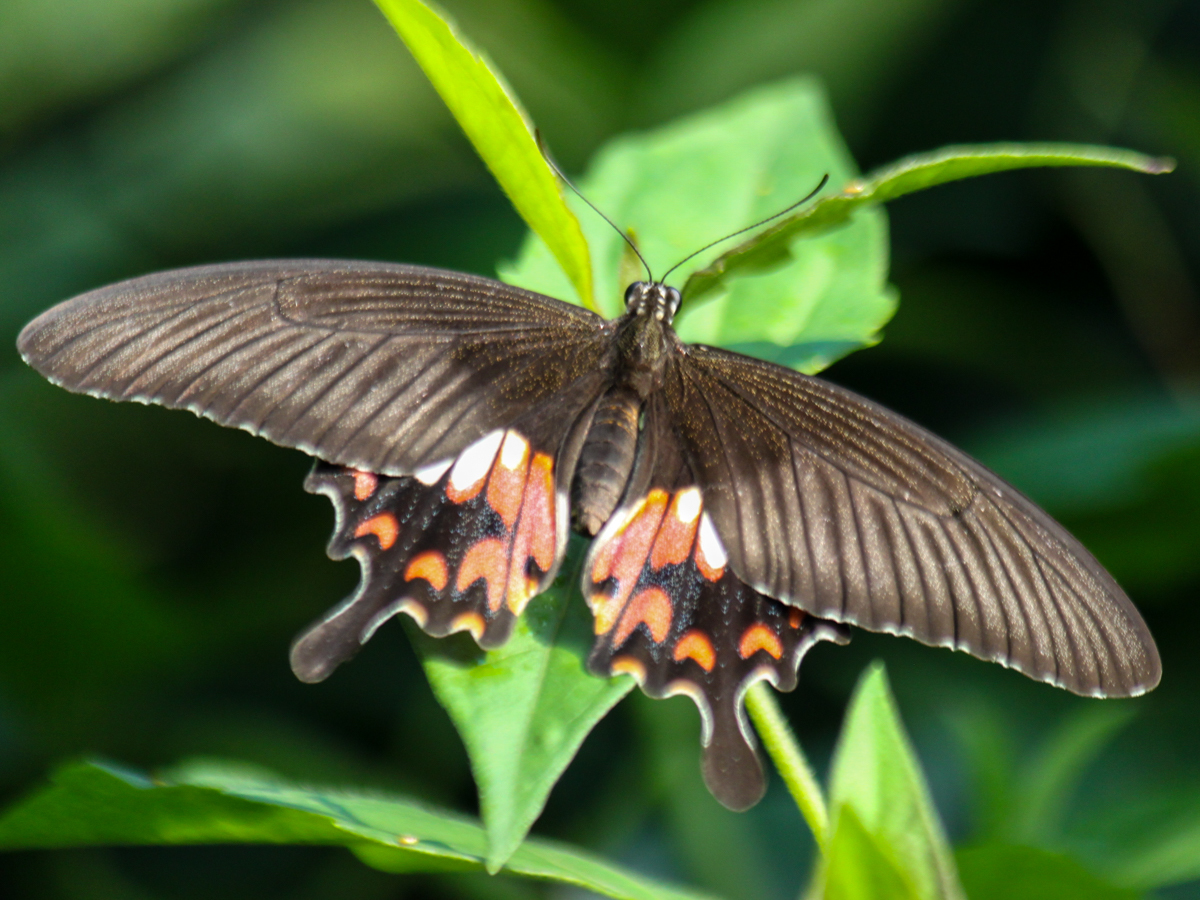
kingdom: Animalia
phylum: Arthropoda
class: Insecta
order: Lepidoptera
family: Papilionidae
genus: Papilio
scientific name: Papilio polytes
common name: Common mormon
